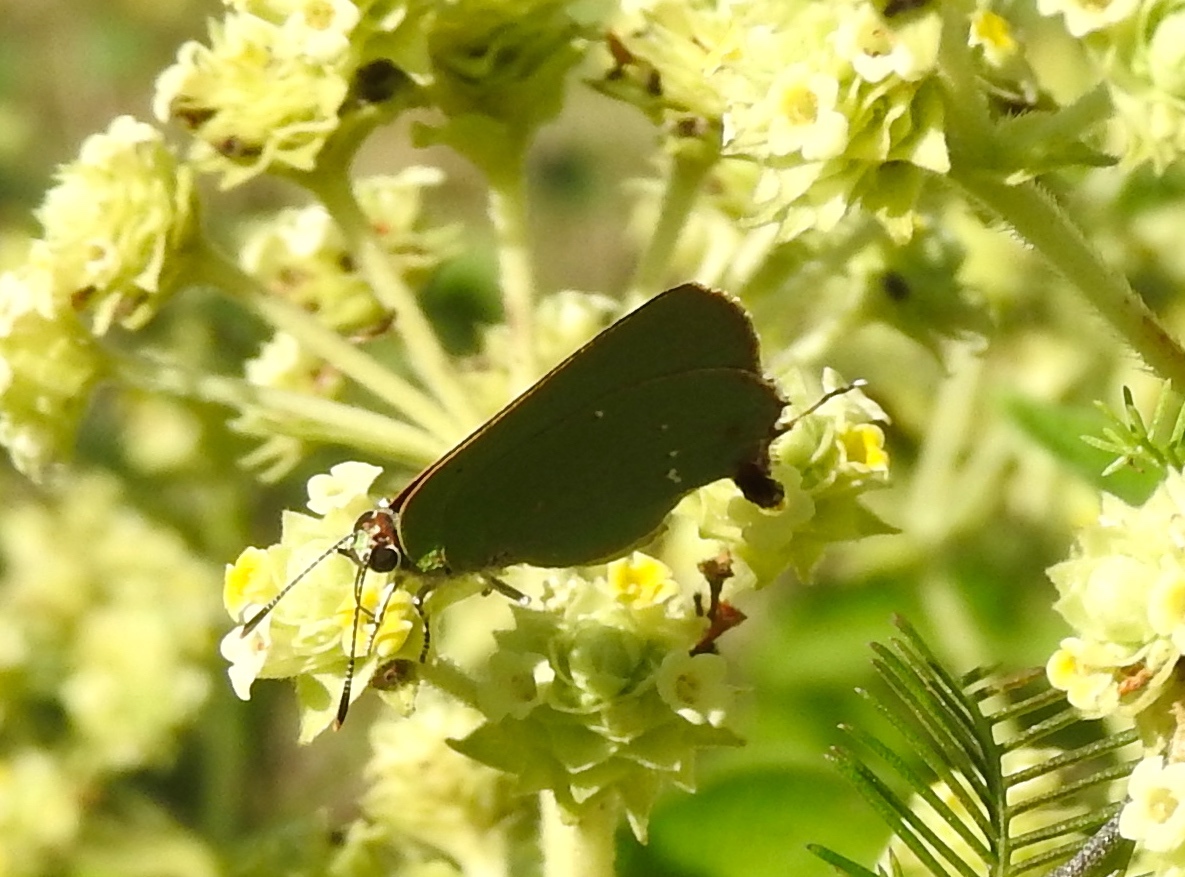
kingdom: Animalia
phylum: Arthropoda
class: Insecta
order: Lepidoptera
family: Lycaenidae
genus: Cyanophrys
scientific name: Cyanophrys
